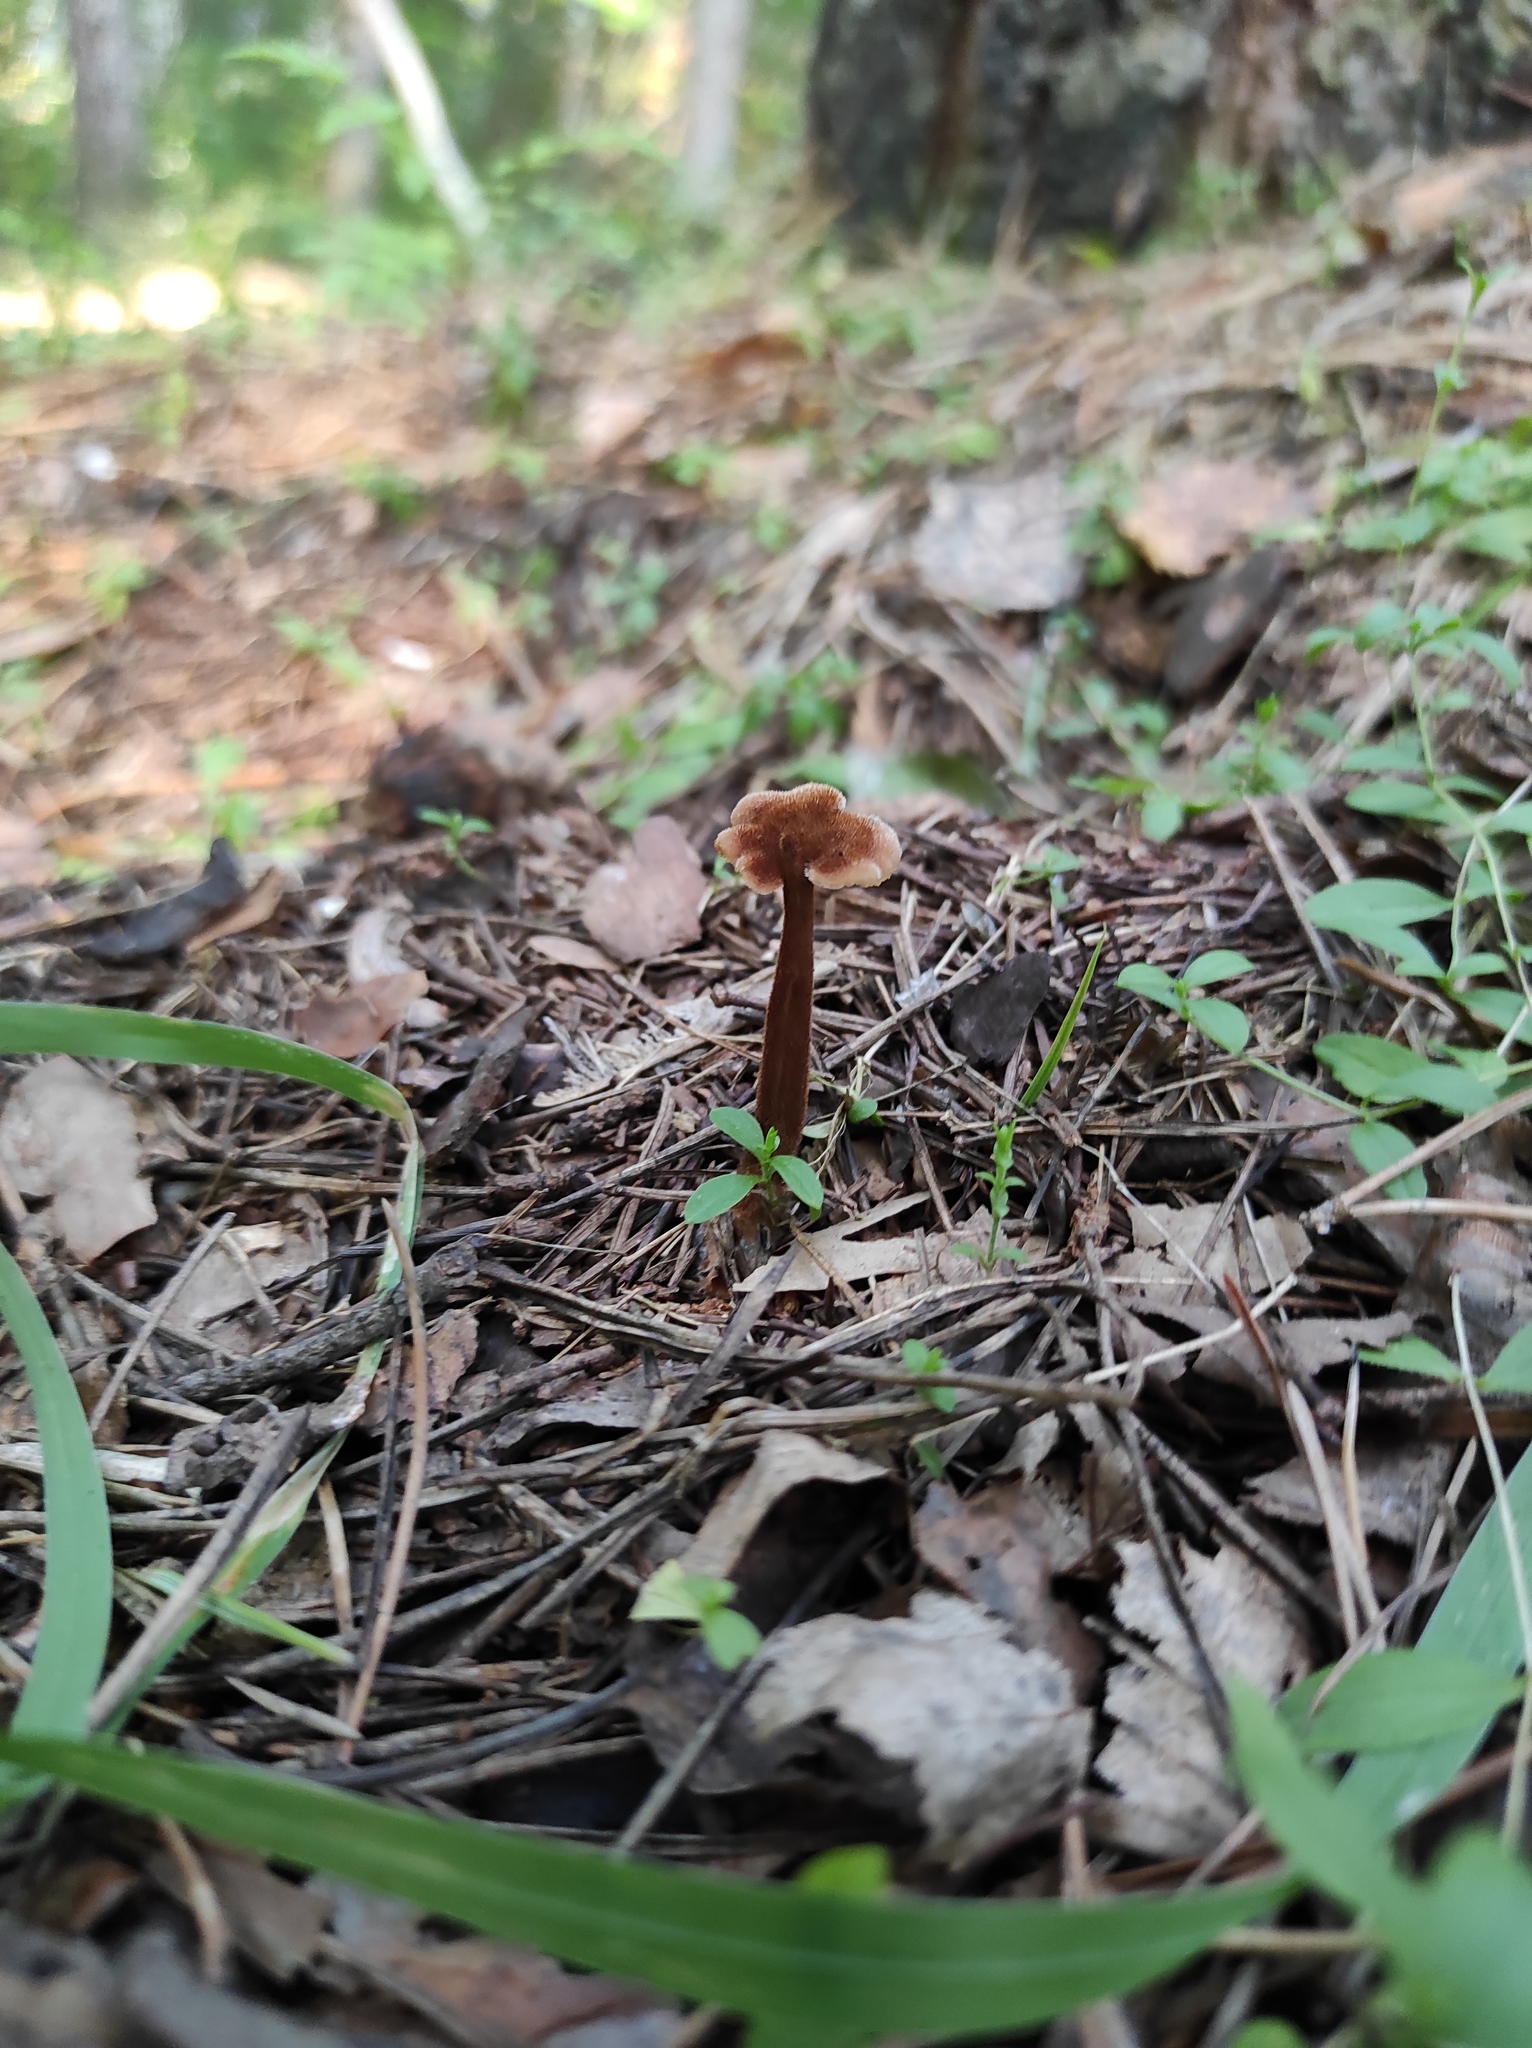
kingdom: Fungi
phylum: Basidiomycota
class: Agaricomycetes
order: Russulales
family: Auriscalpiaceae
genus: Auriscalpium
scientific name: Auriscalpium vulgare
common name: Earpick fungus
